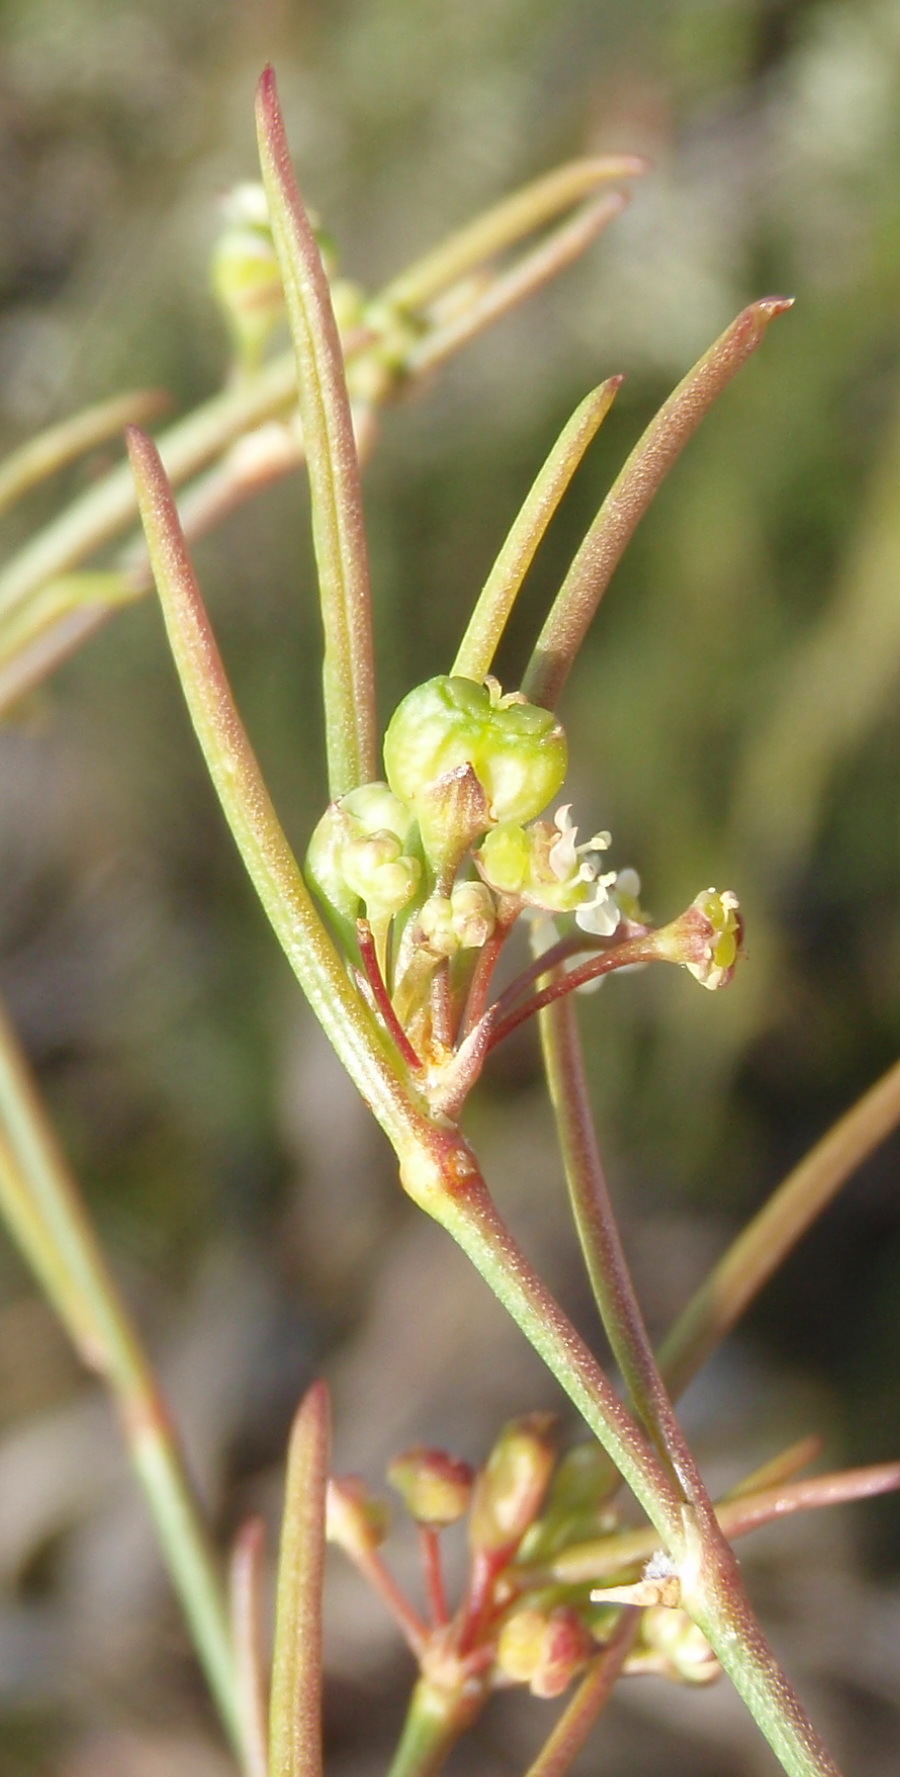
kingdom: Plantae
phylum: Tracheophyta
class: Magnoliopsida
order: Apiales
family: Apiaceae
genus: Centella
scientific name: Centella virgata
